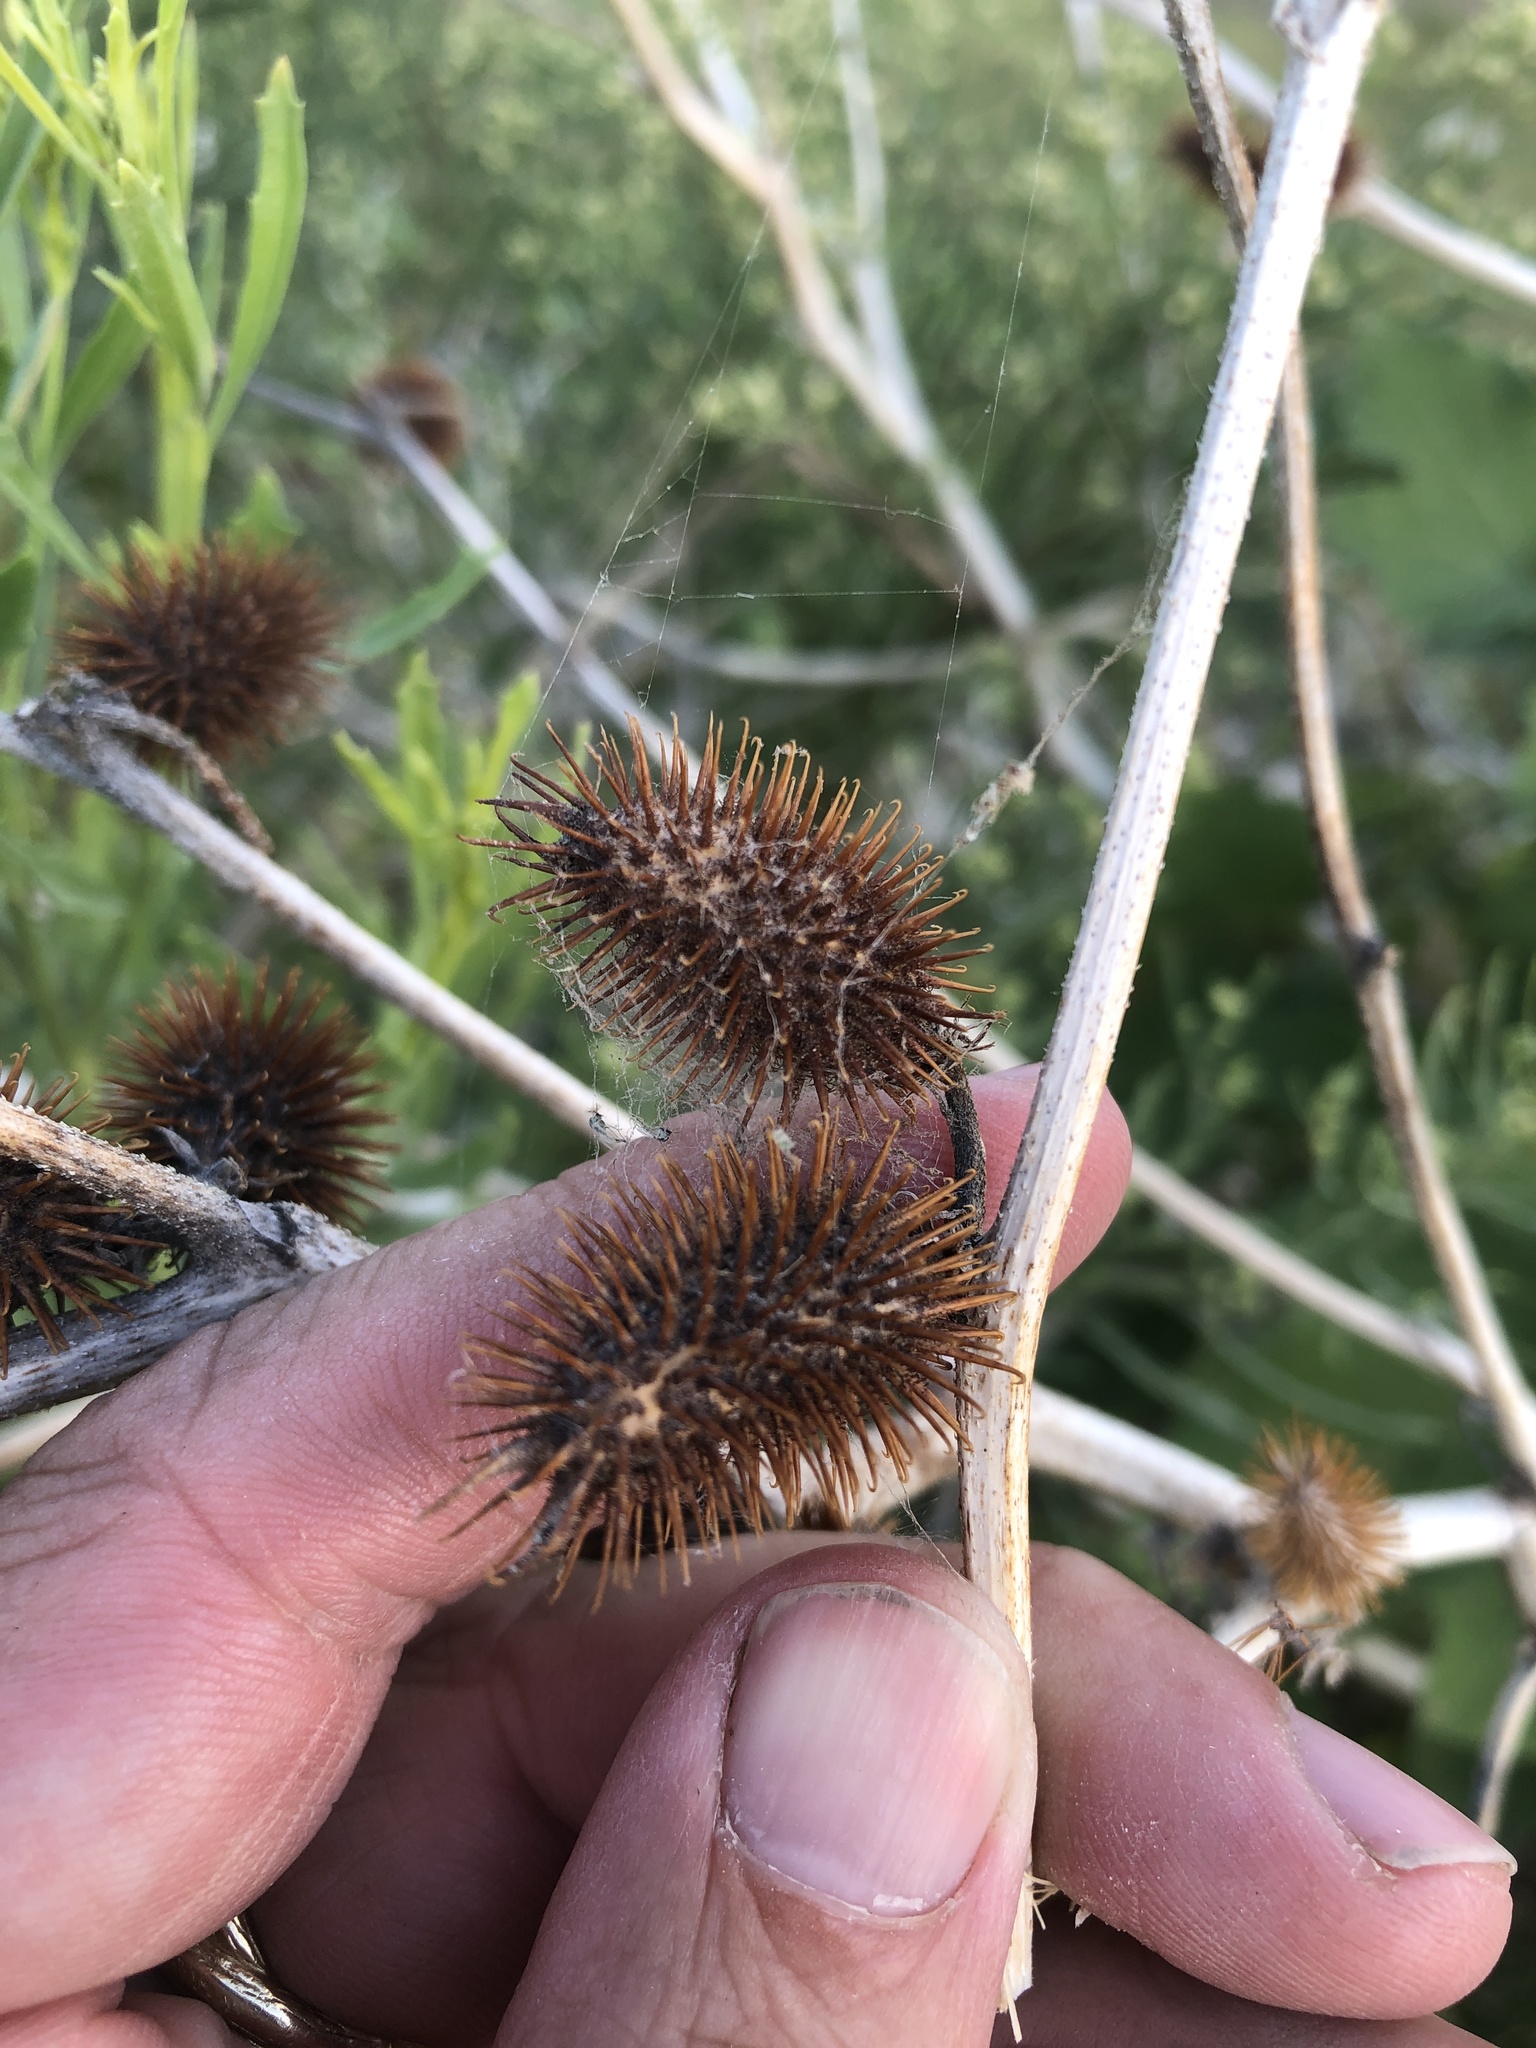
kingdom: Plantae
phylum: Tracheophyta
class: Magnoliopsida
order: Asterales
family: Asteraceae
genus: Xanthium
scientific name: Xanthium strumarium
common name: Rough cocklebur
